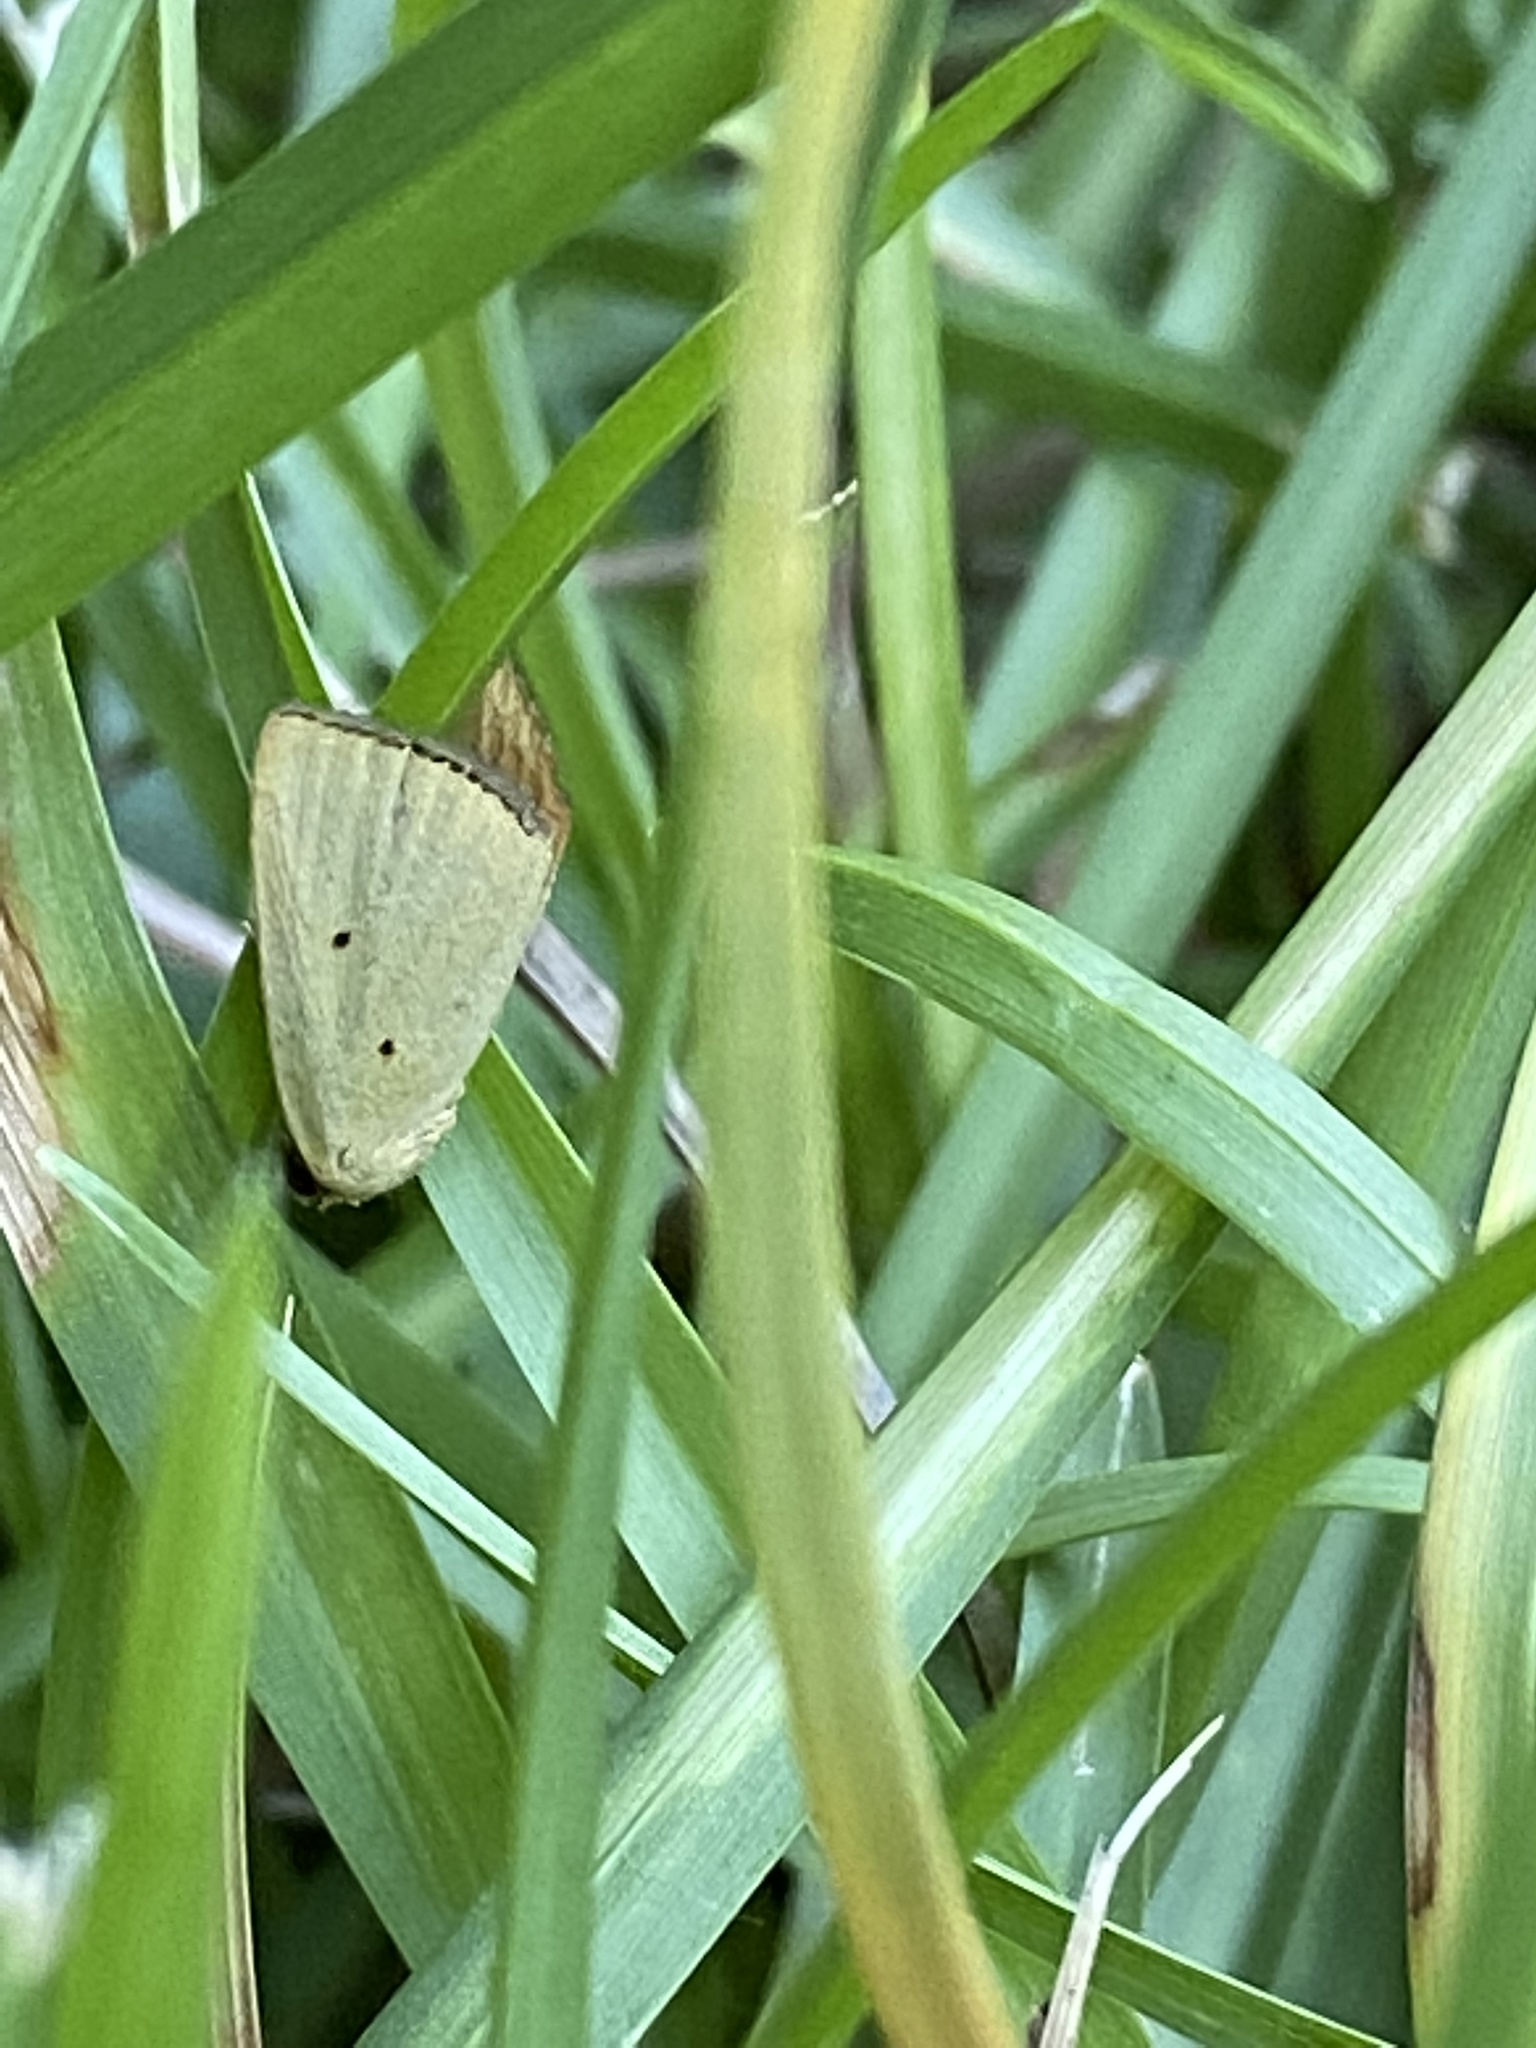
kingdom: Animalia
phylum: Arthropoda
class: Insecta
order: Lepidoptera
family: Noctuidae
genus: Marimatha
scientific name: Marimatha nigrofimbria
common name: Black-bordered lemon moth
